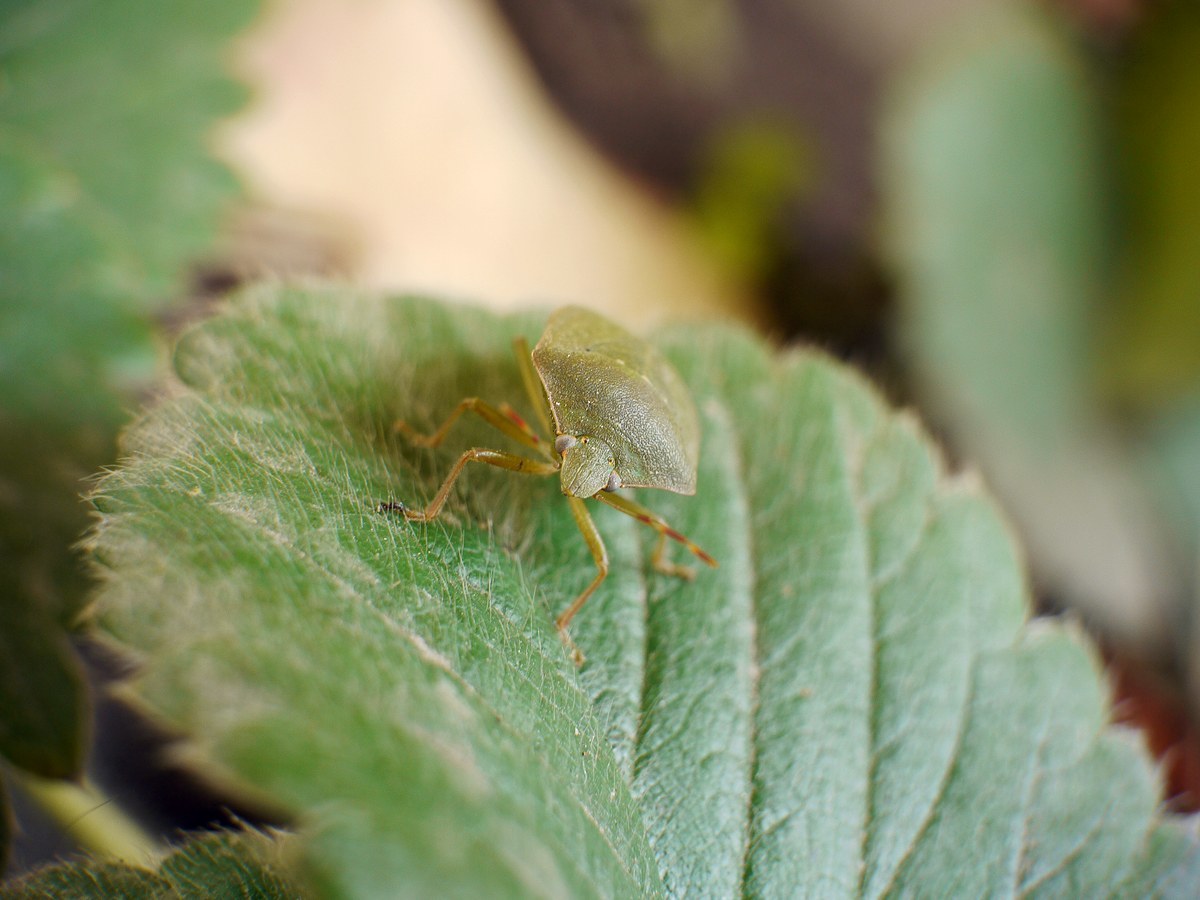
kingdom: Animalia
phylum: Arthropoda
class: Insecta
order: Hemiptera
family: Pentatomidae
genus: Nezara
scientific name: Nezara viridula
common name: Southern green stink bug
